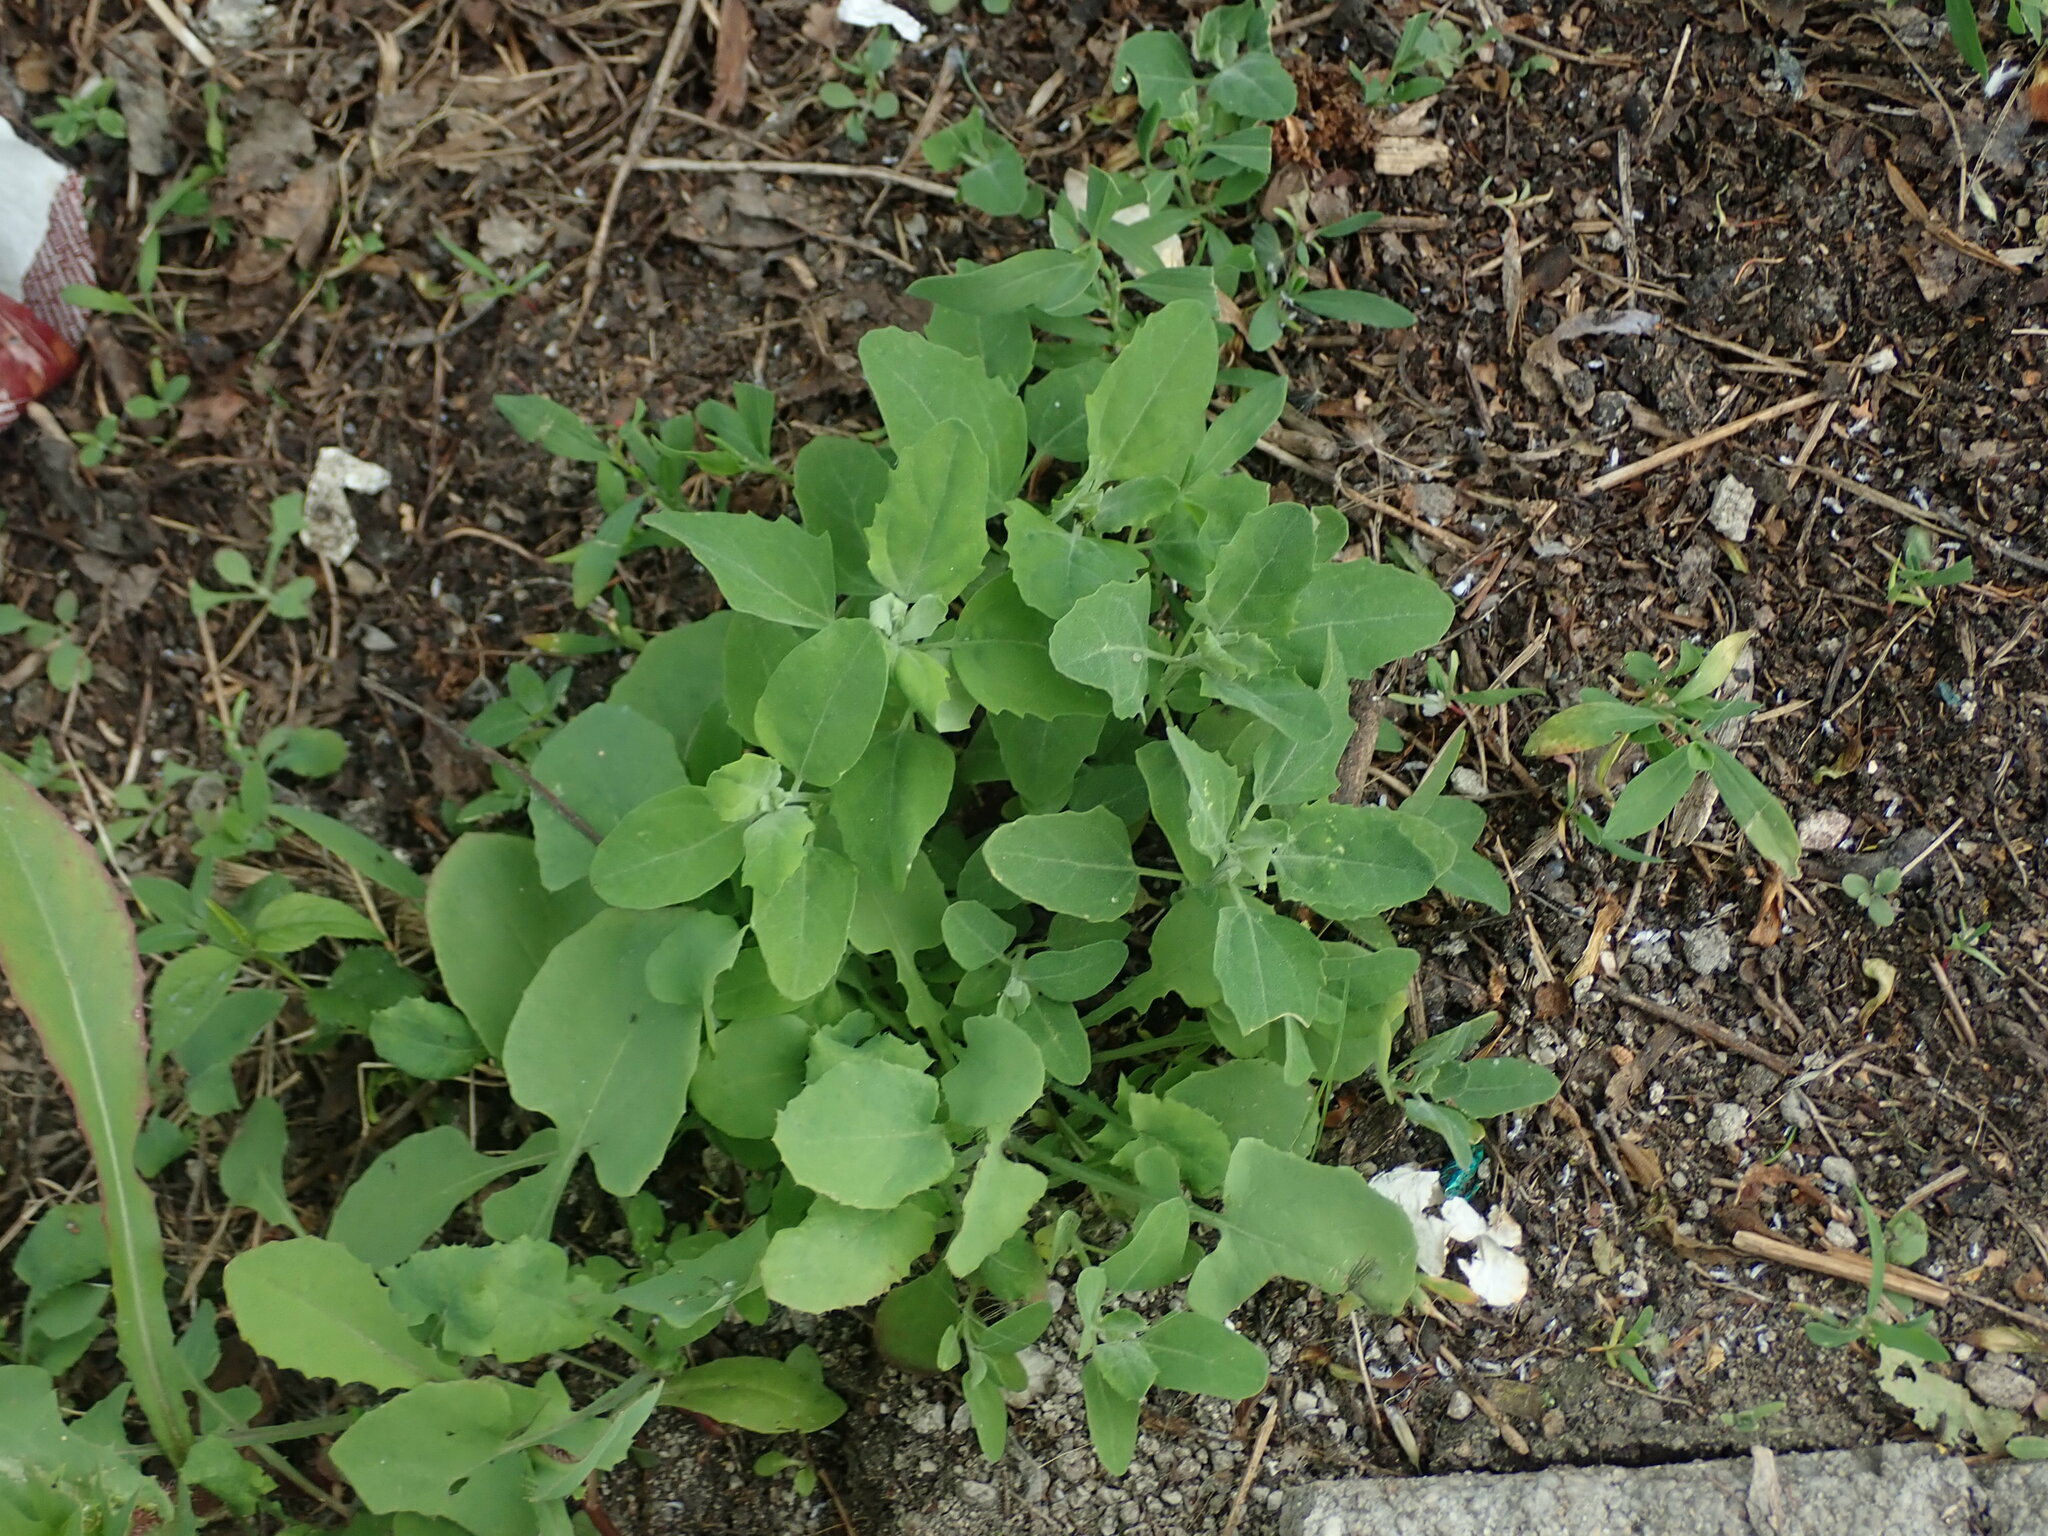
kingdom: Plantae
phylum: Tracheophyta
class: Magnoliopsida
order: Caryophyllales
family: Amaranthaceae
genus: Chenopodium
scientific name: Chenopodium album
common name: Fat-hen
